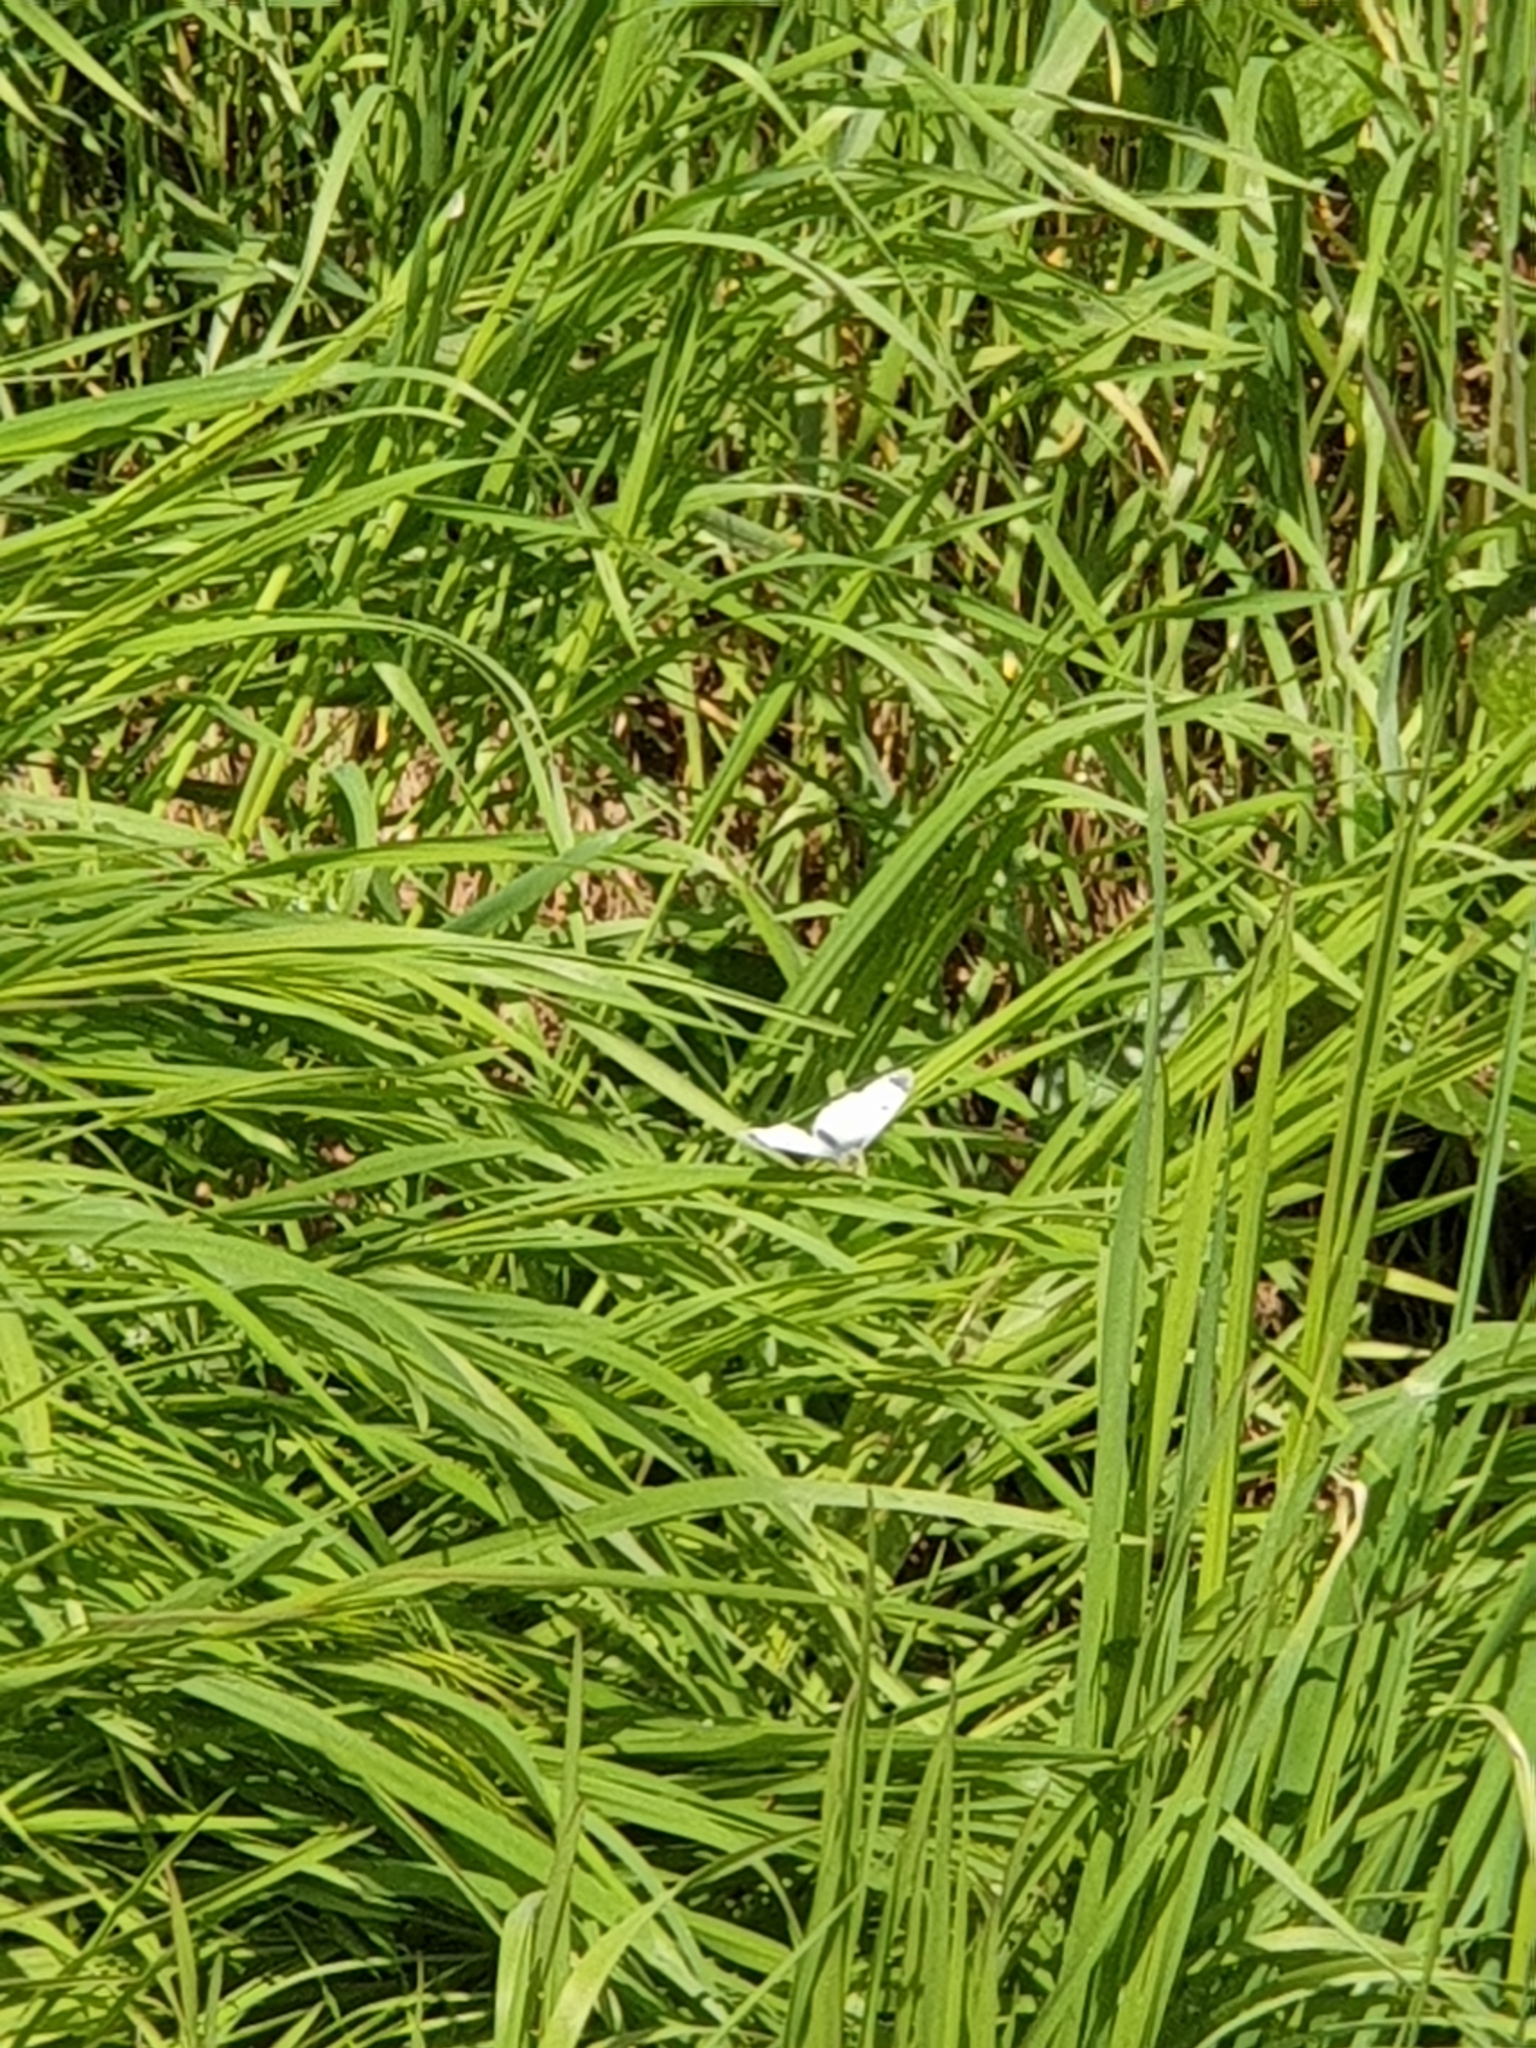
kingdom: Animalia
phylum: Arthropoda
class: Insecta
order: Lepidoptera
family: Pieridae
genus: Anthocharis
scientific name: Anthocharis cardamines
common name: Orange-tip
